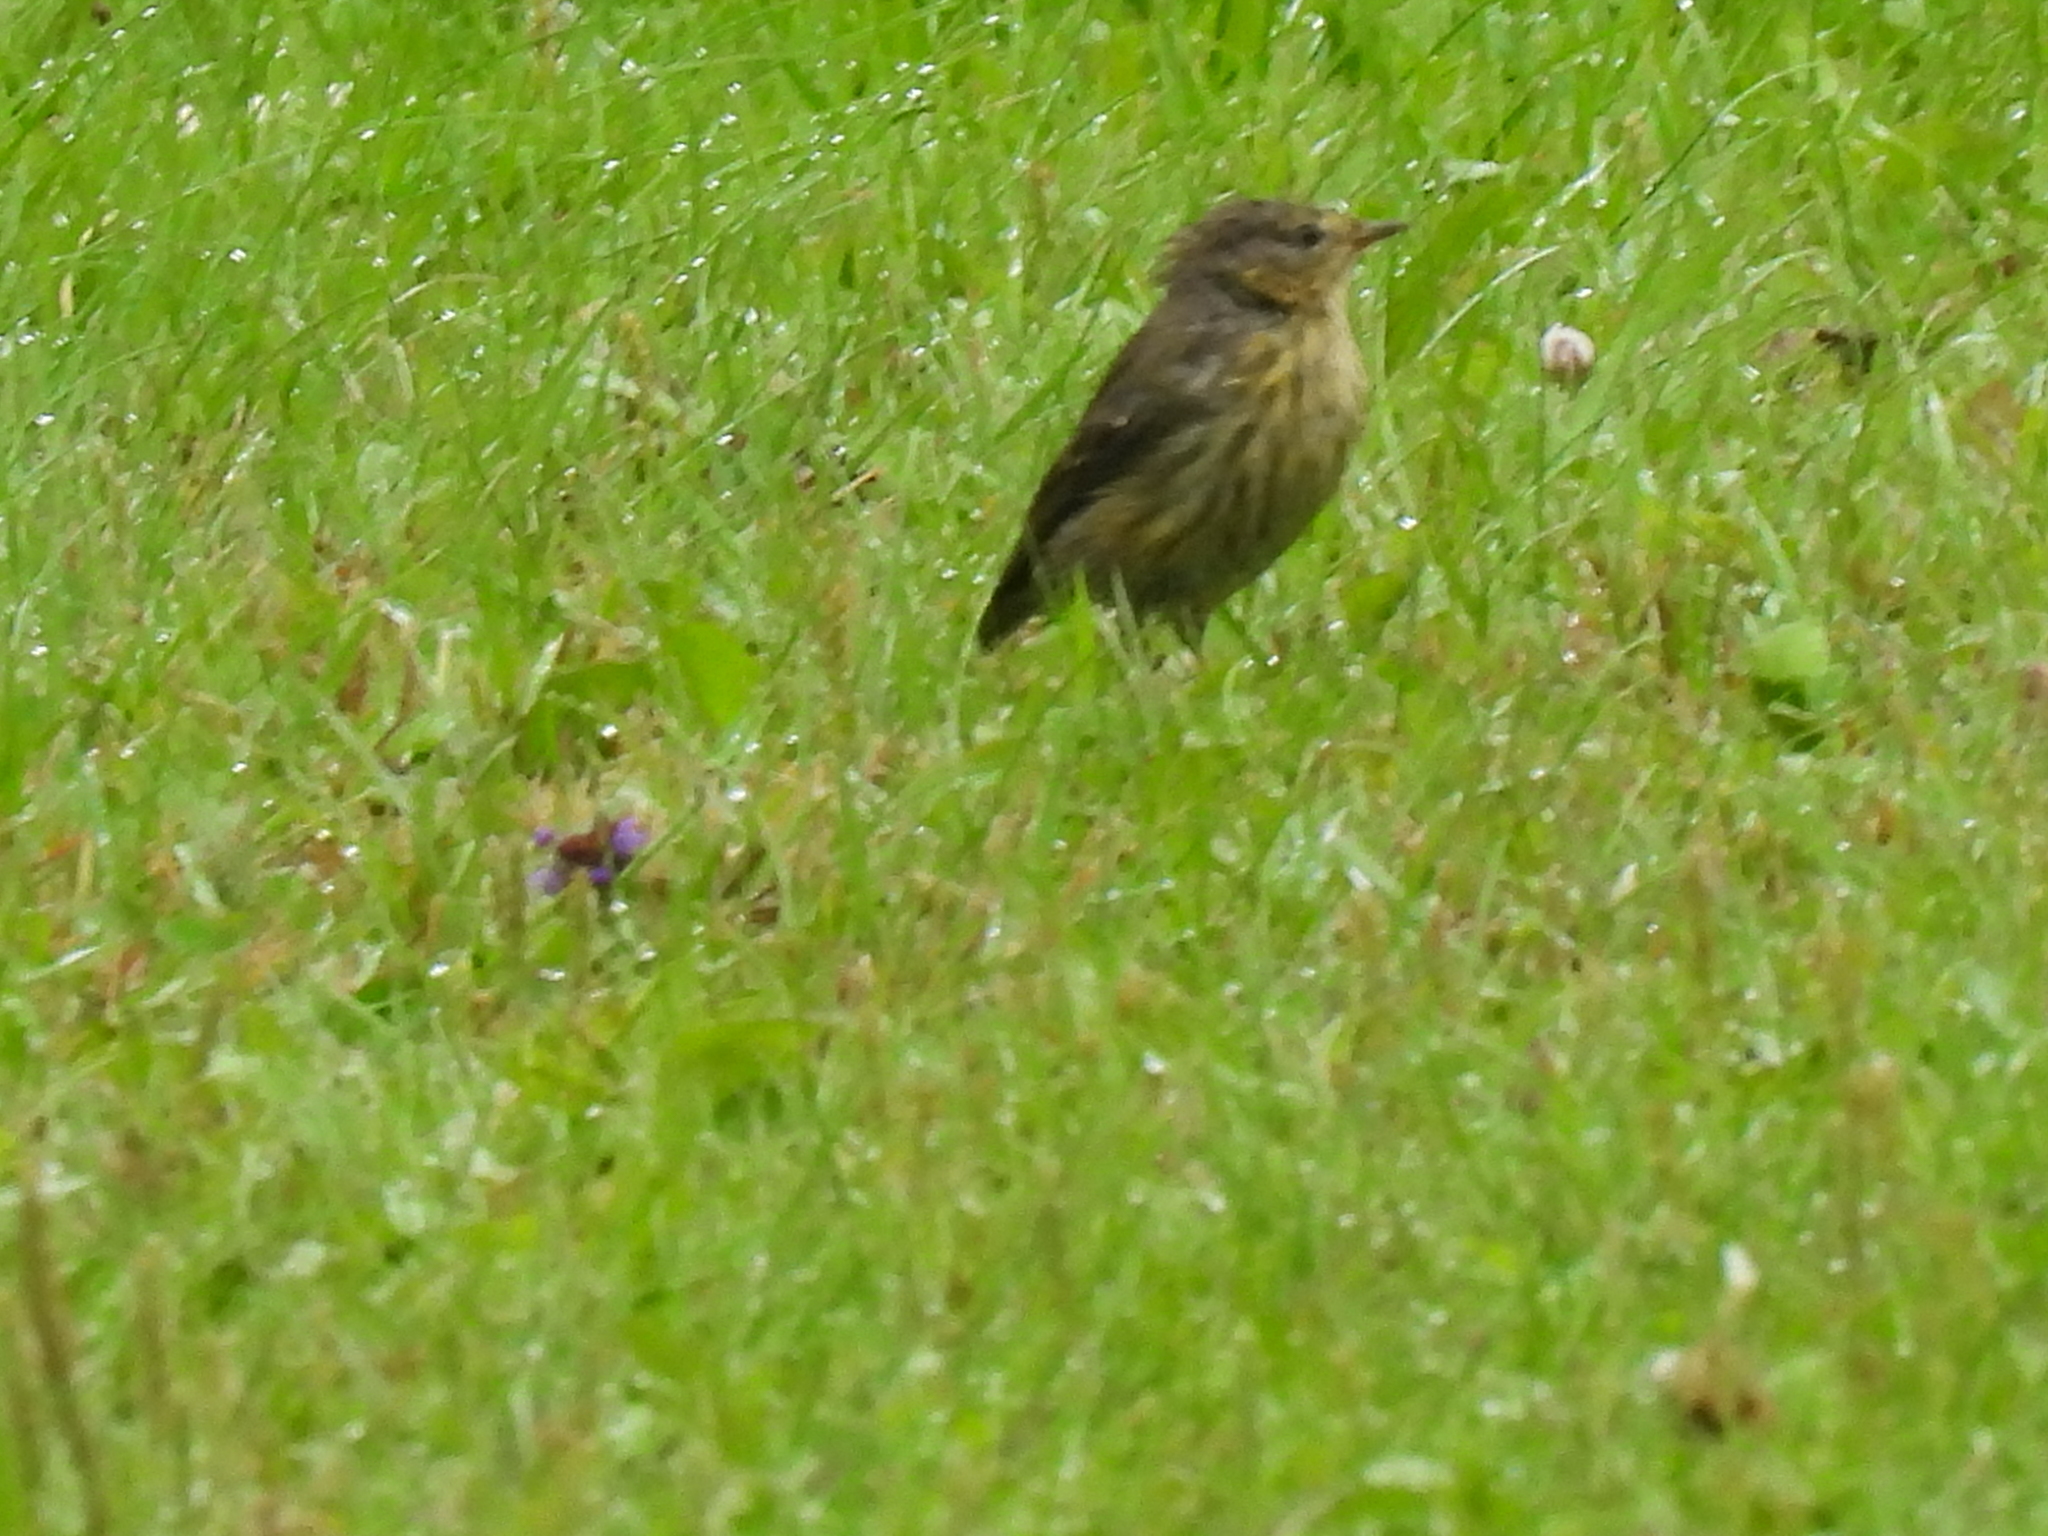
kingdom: Animalia
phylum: Chordata
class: Aves
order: Passeriformes
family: Parulidae
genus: Setophaga
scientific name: Setophaga tigrina
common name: Cape may warbler
